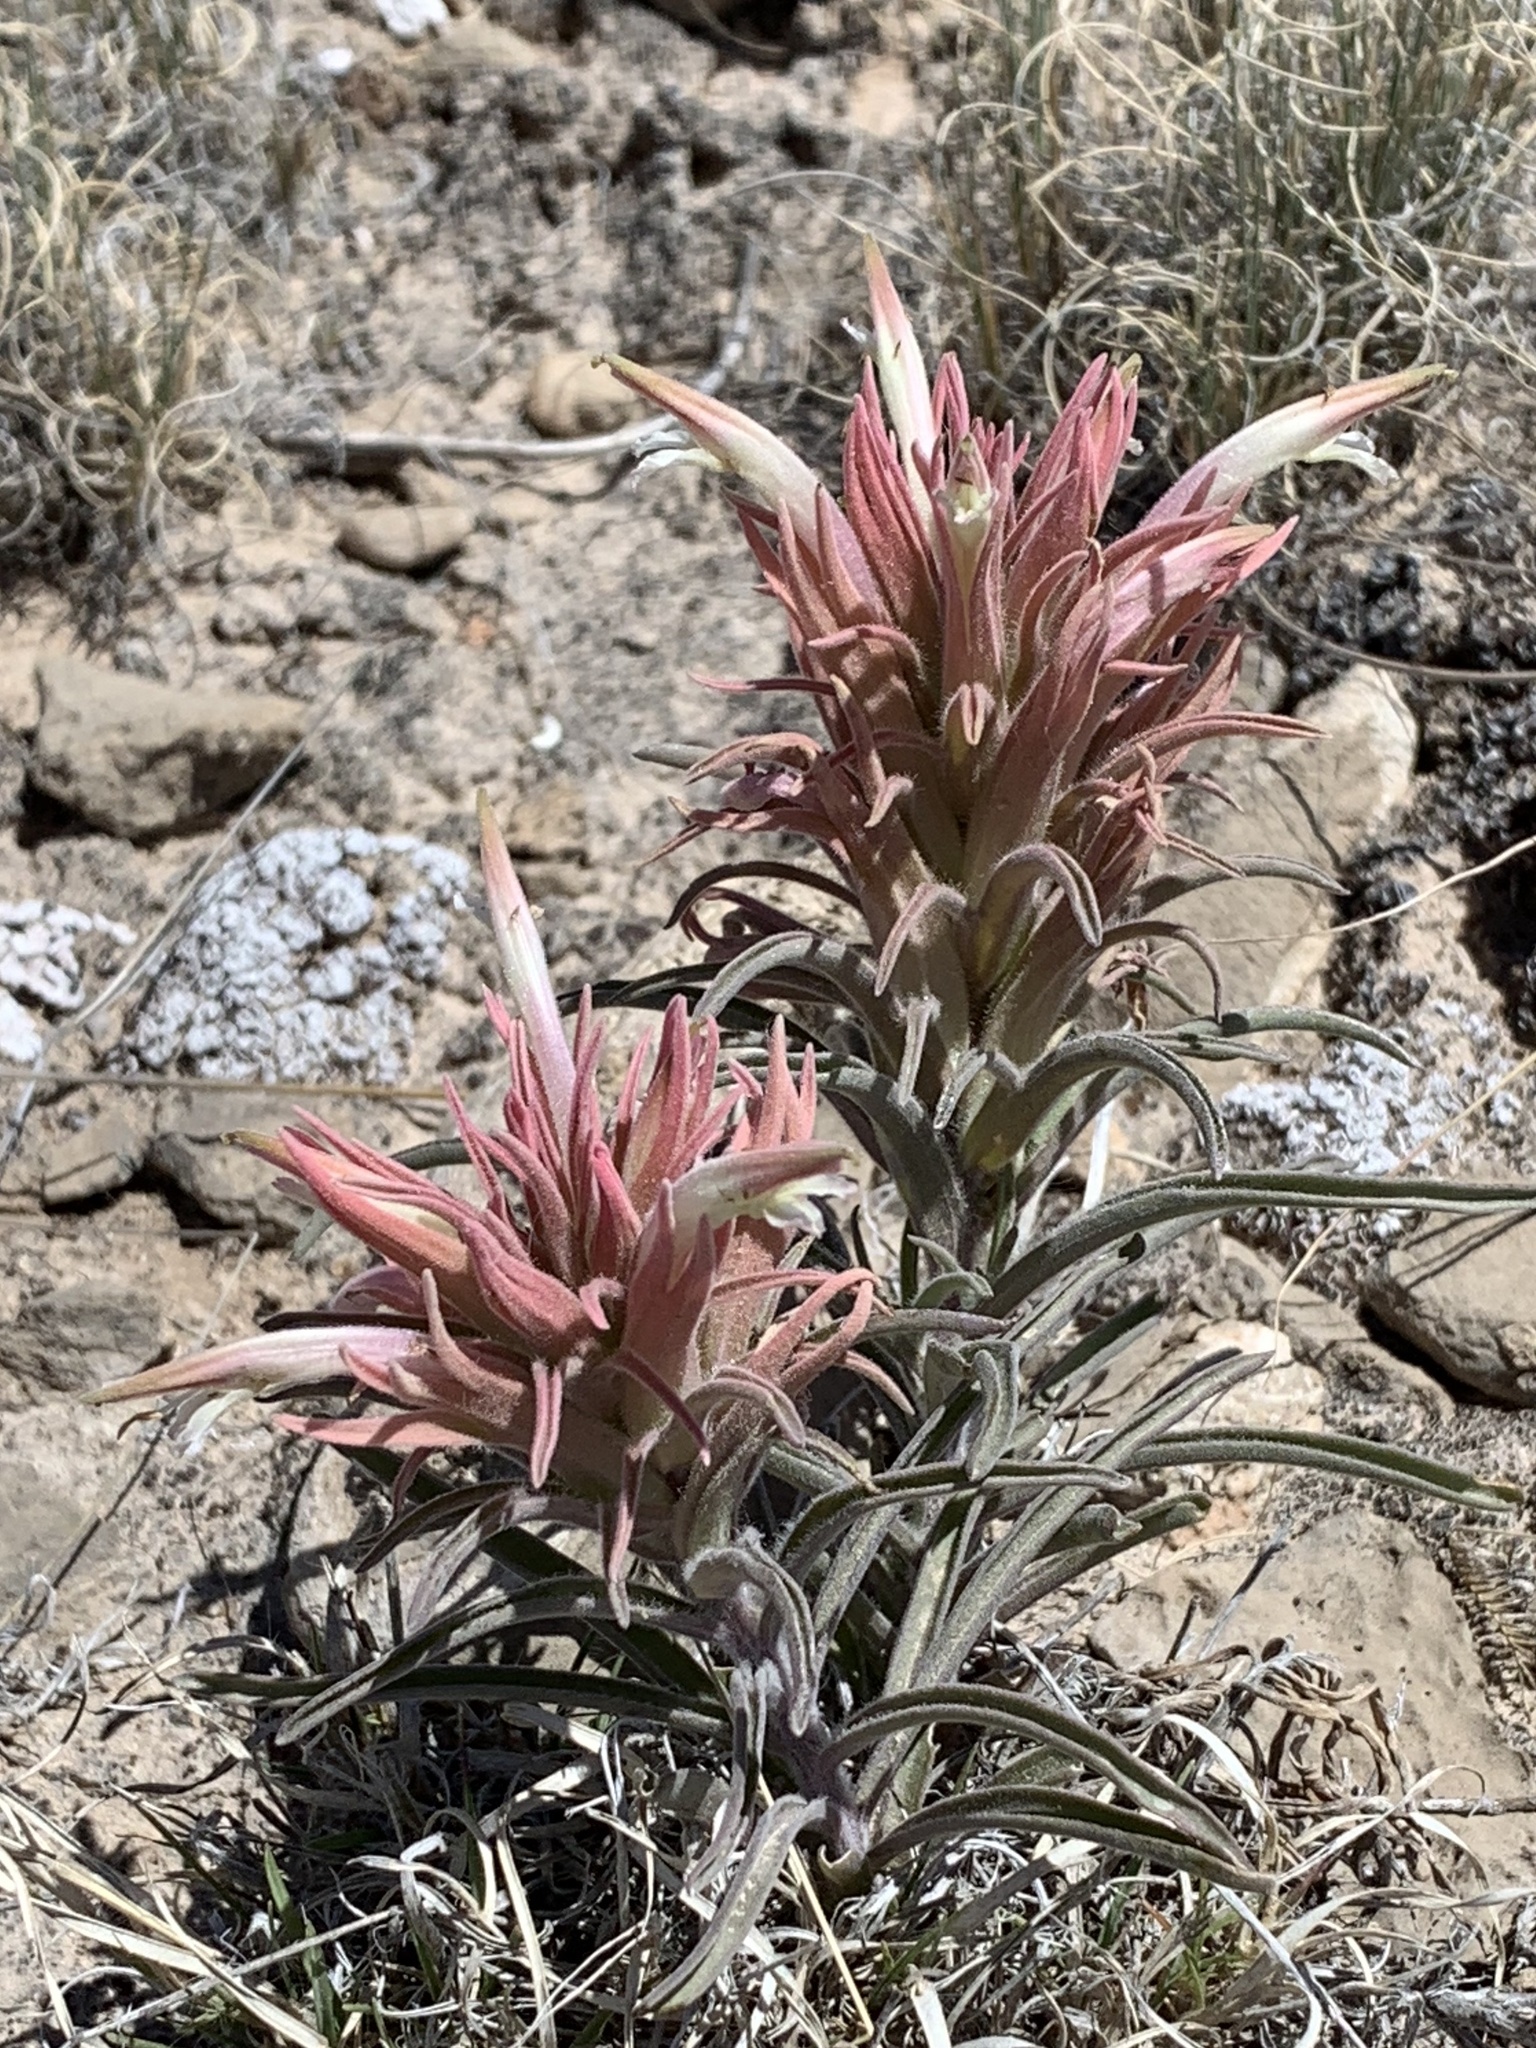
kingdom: Plantae
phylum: Tracheophyta
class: Magnoliopsida
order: Lamiales
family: Orobanchaceae
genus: Castilleja
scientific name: Castilleja sessiliflora
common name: Downy paintbrush
